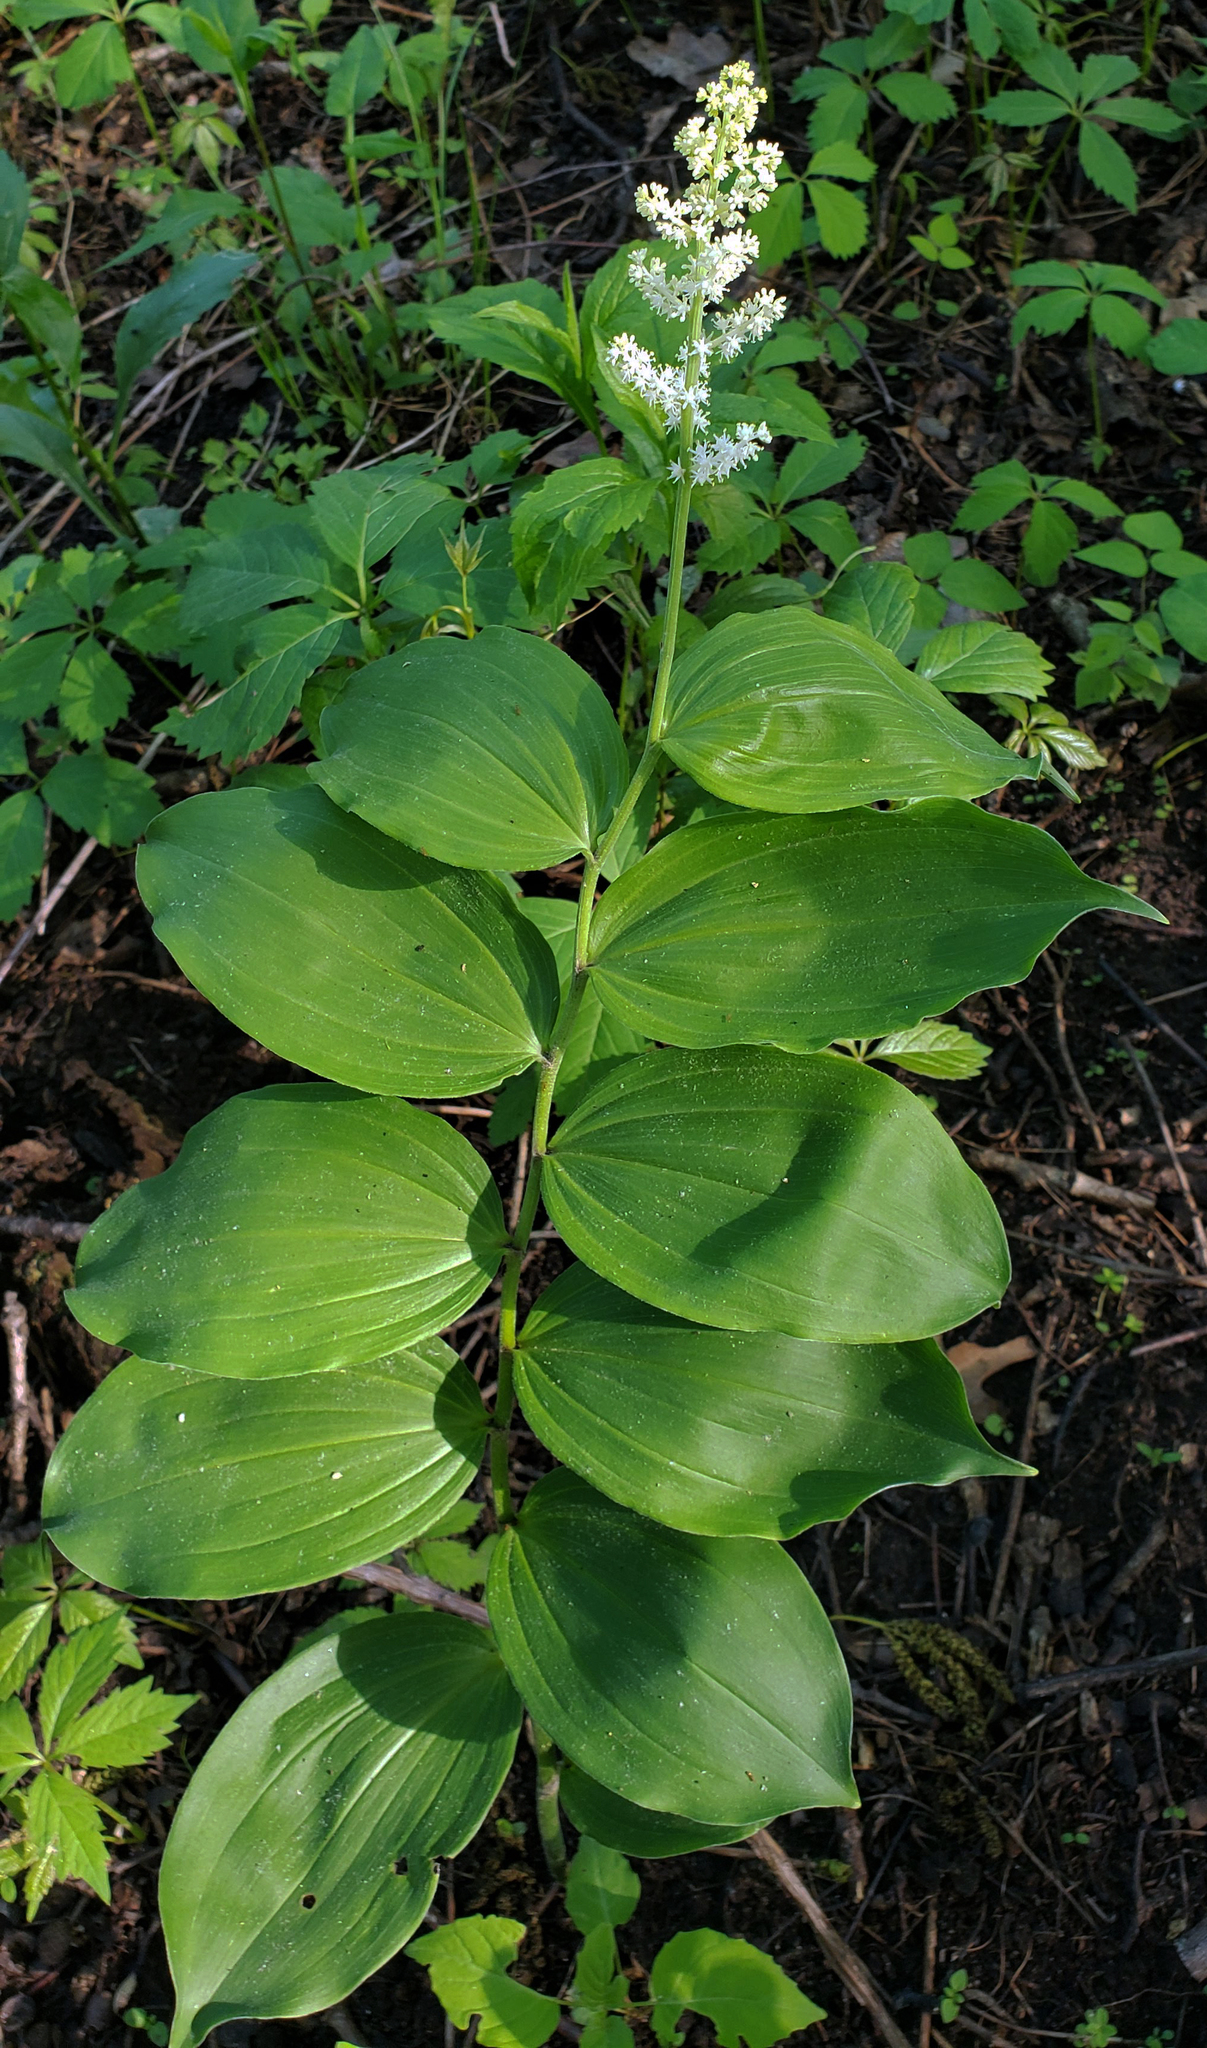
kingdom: Plantae
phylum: Tracheophyta
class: Liliopsida
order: Asparagales
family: Asparagaceae
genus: Maianthemum
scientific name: Maianthemum racemosum
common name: False spikenard
